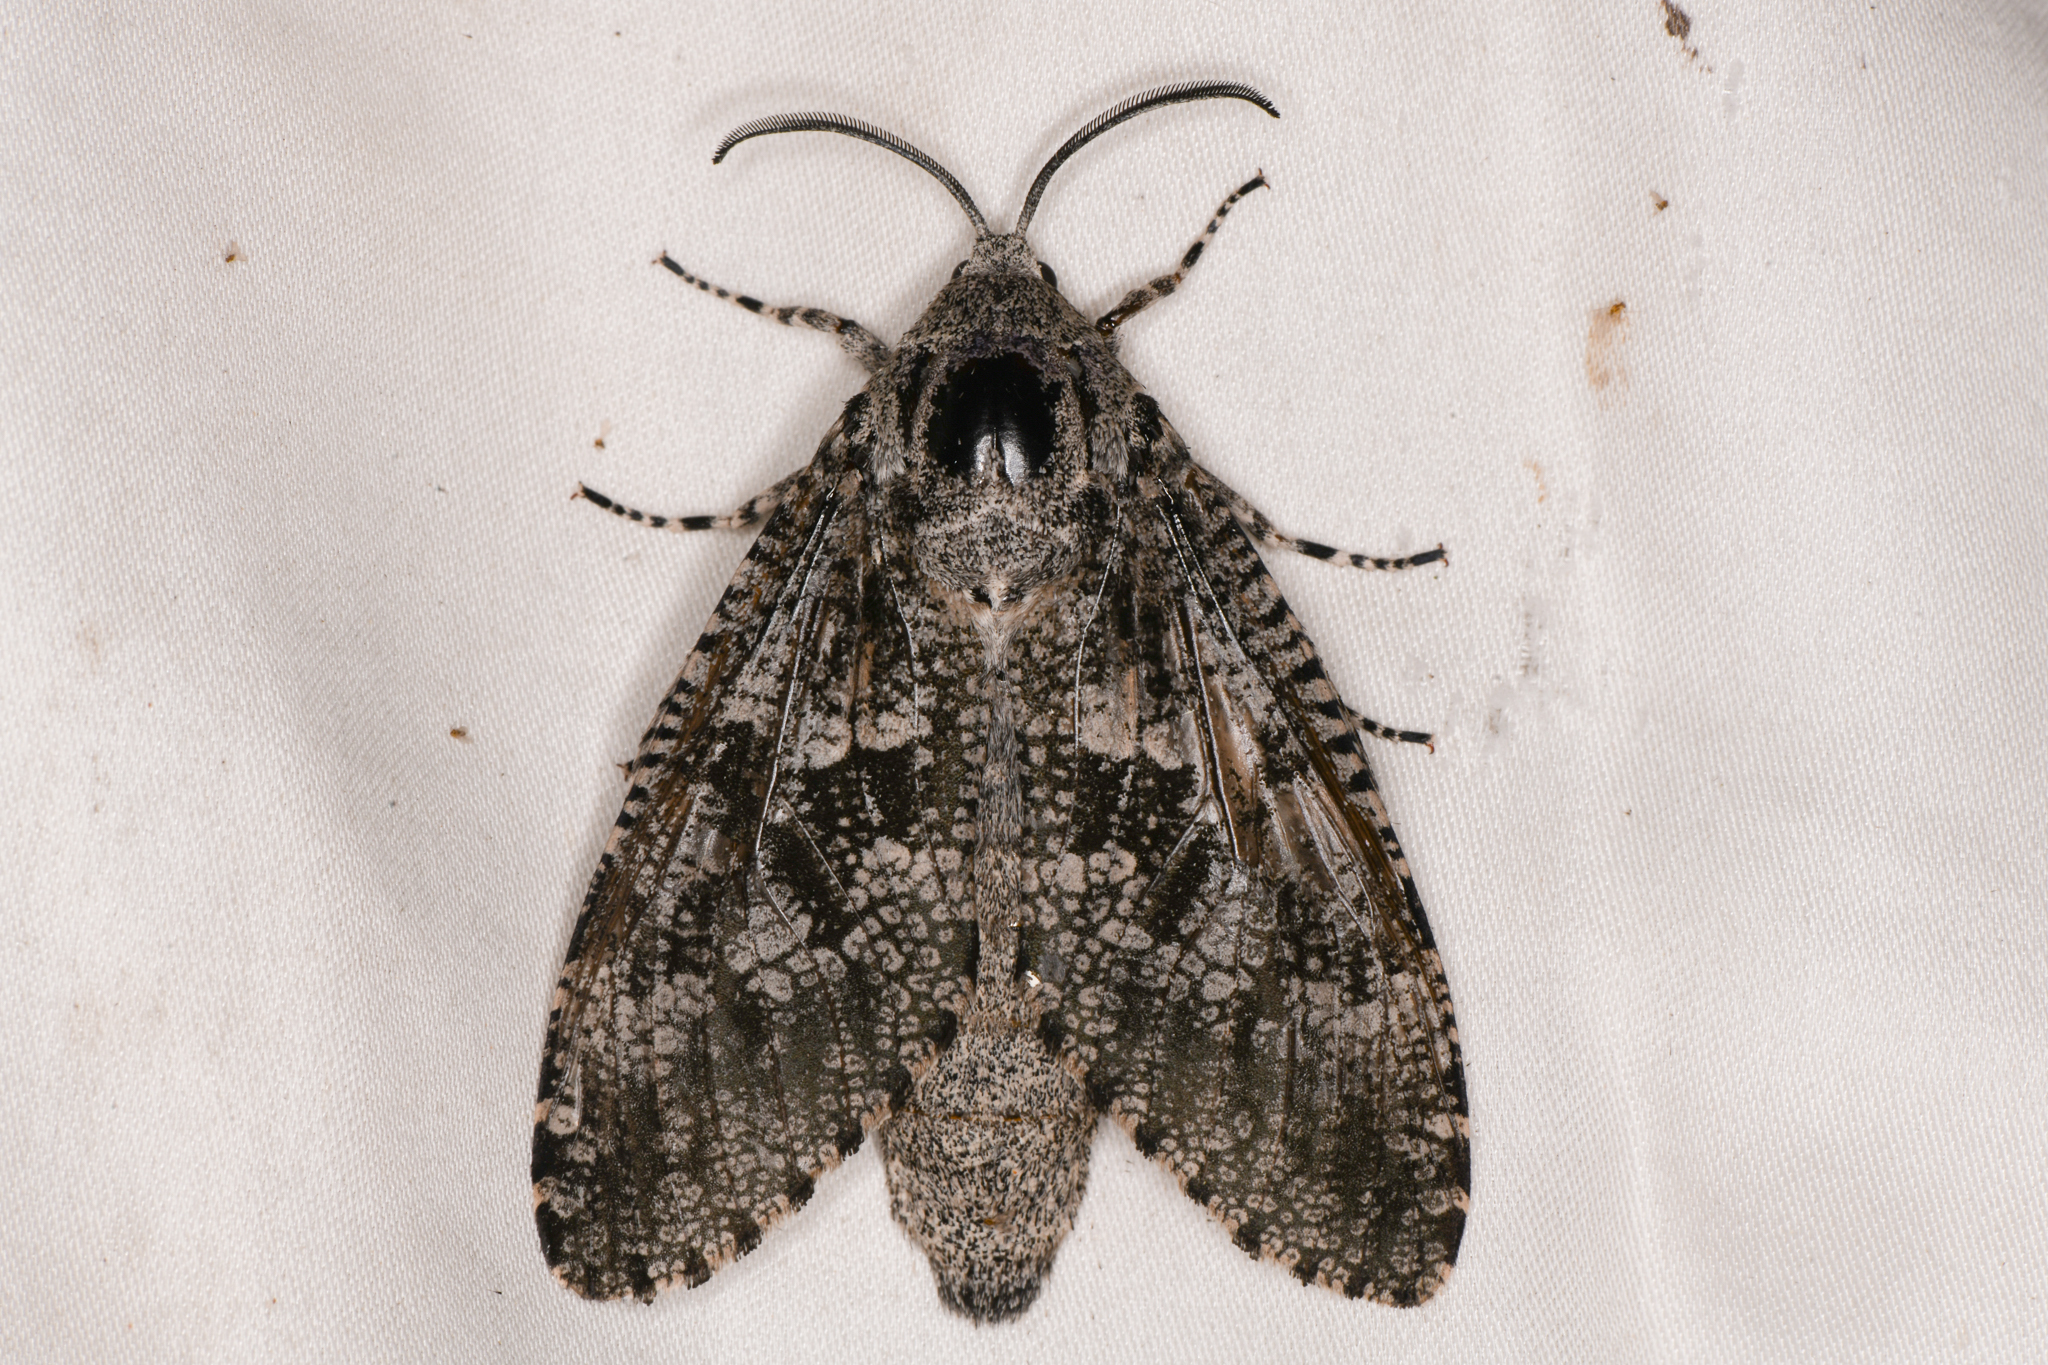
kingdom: Animalia
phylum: Arthropoda
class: Insecta
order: Lepidoptera
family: Cossidae
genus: Prionoxystus
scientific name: Prionoxystus robiniae
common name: Carpenterworm
